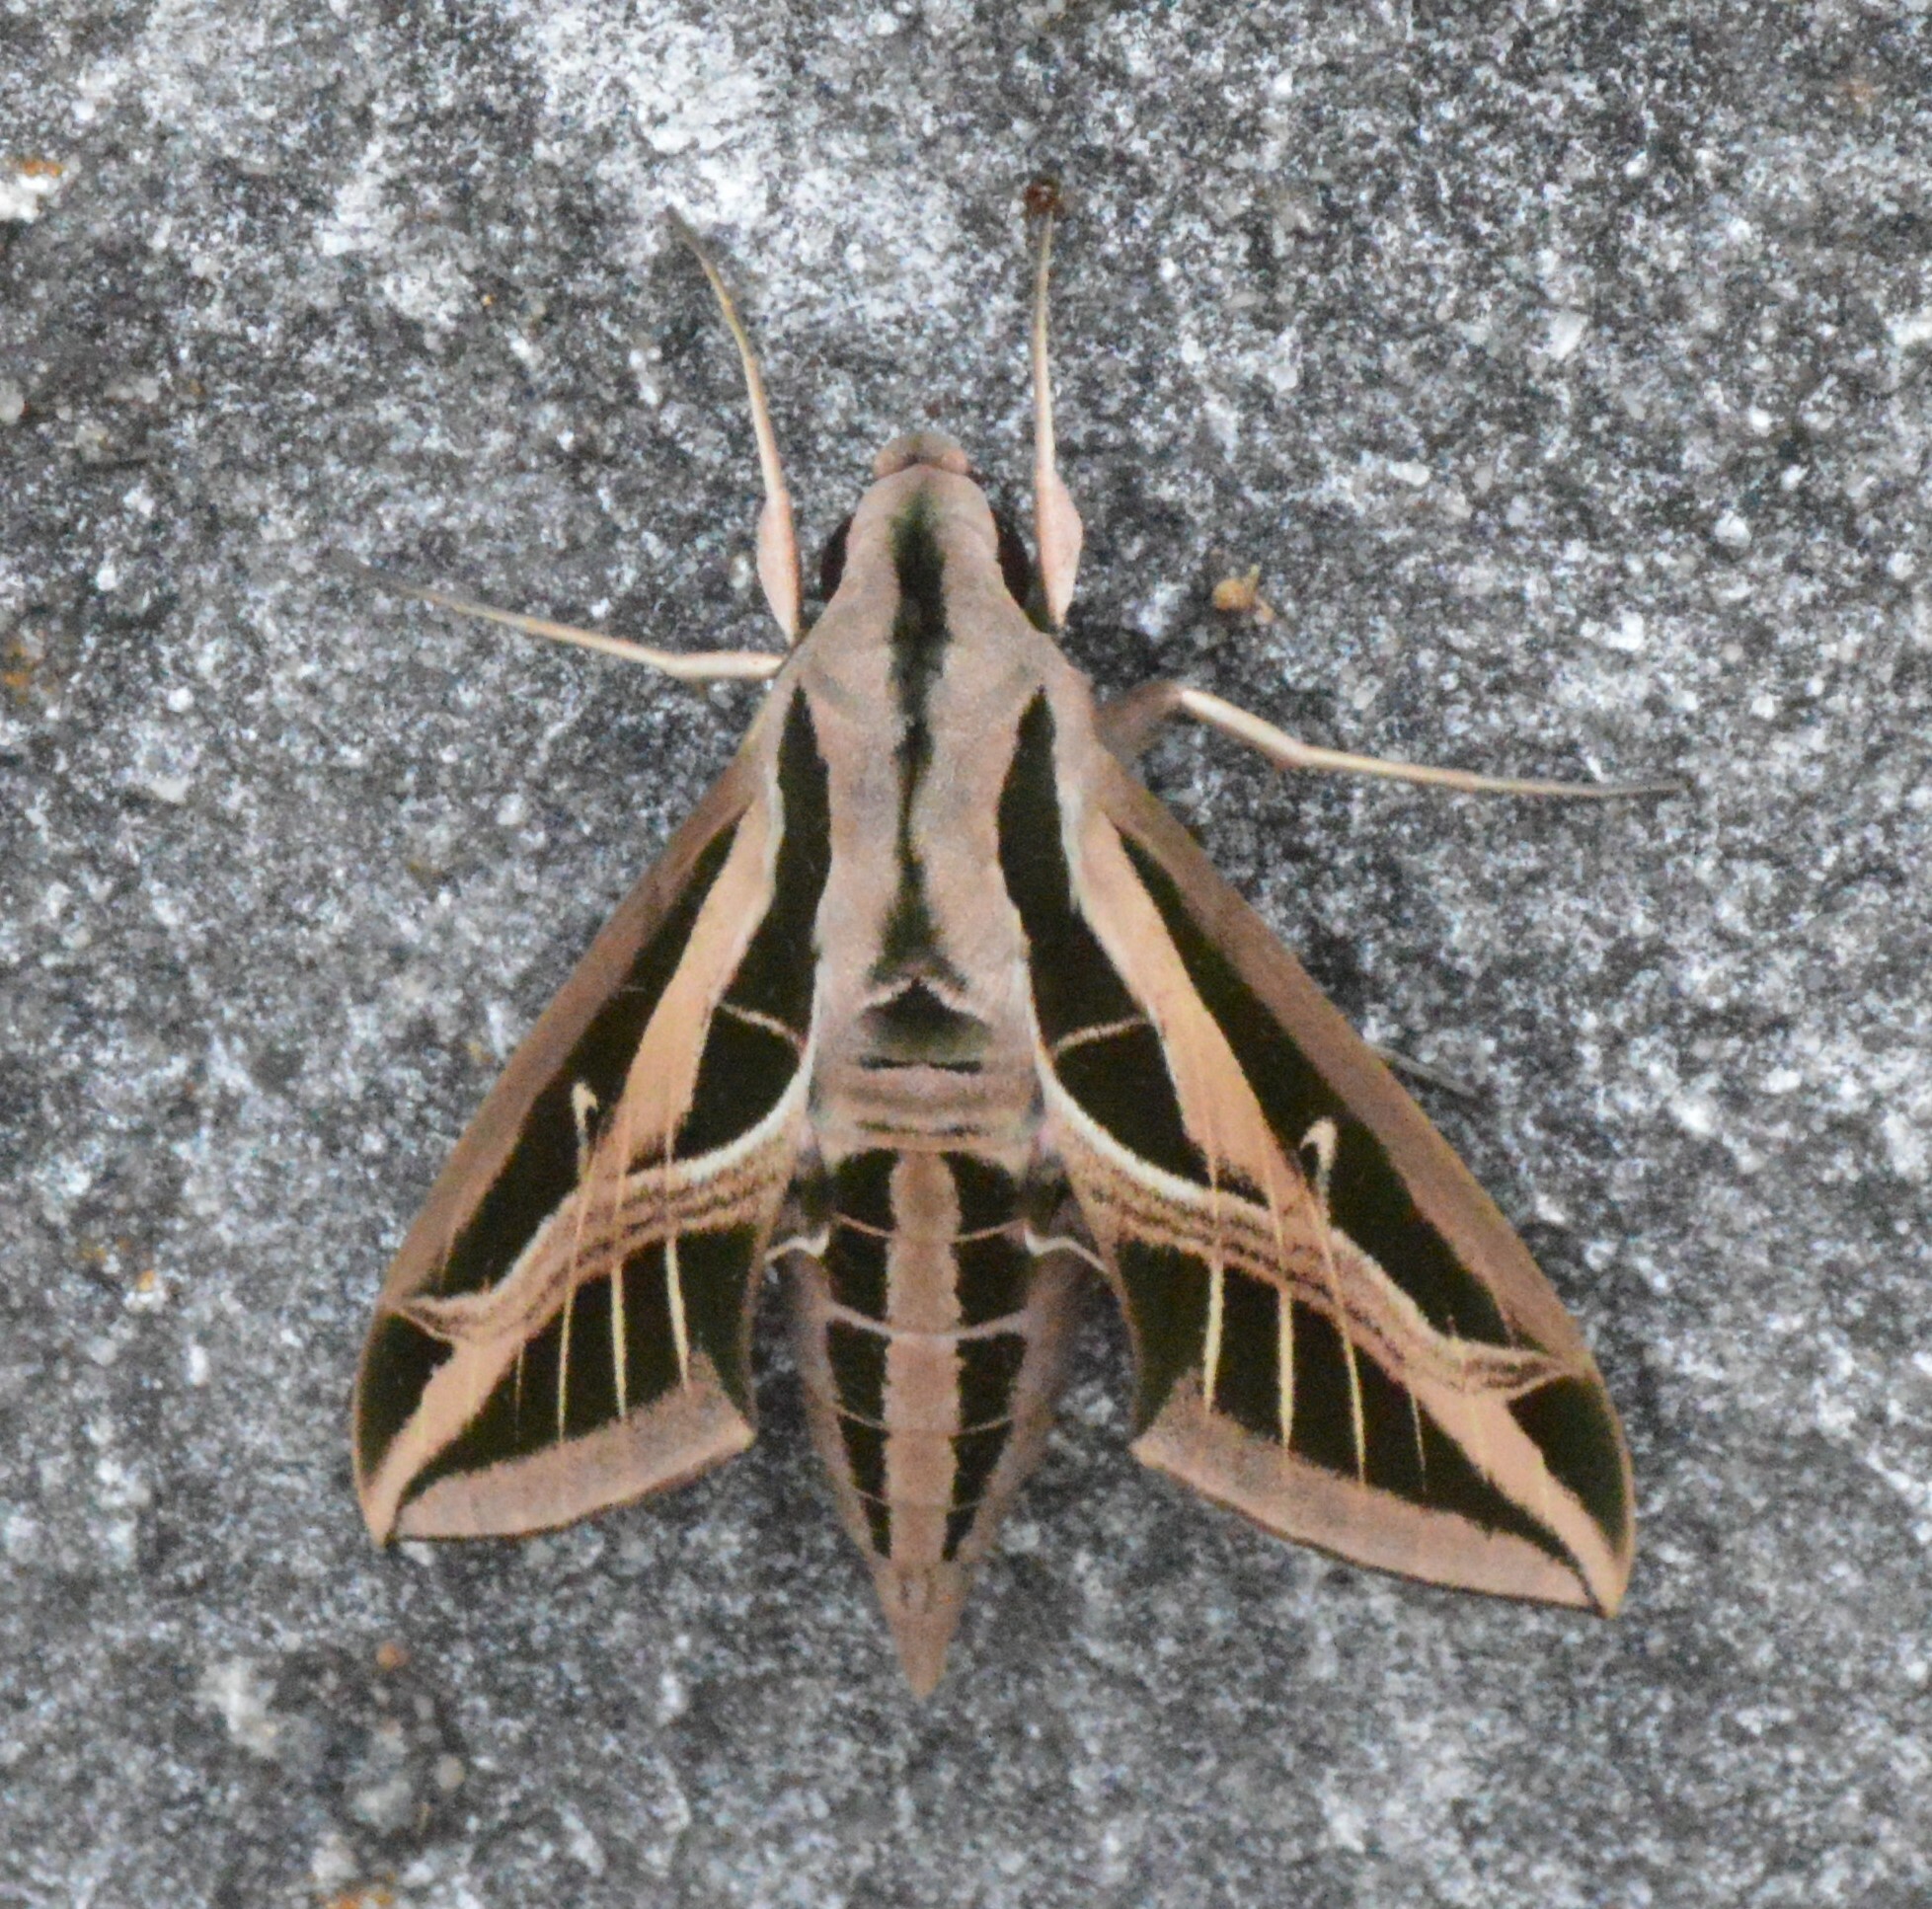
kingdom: Animalia
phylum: Arthropoda
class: Insecta
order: Lepidoptera
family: Sphingidae
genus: Eumorpha
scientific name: Eumorpha fasciatus
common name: Banded sphinx
